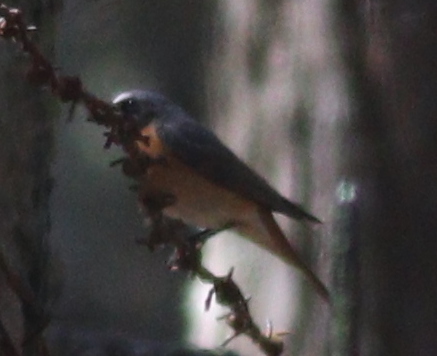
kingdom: Animalia
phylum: Chordata
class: Aves
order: Passeriformes
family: Muscicapidae
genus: Phoenicurus
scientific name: Phoenicurus phoenicurus
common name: Common redstart
